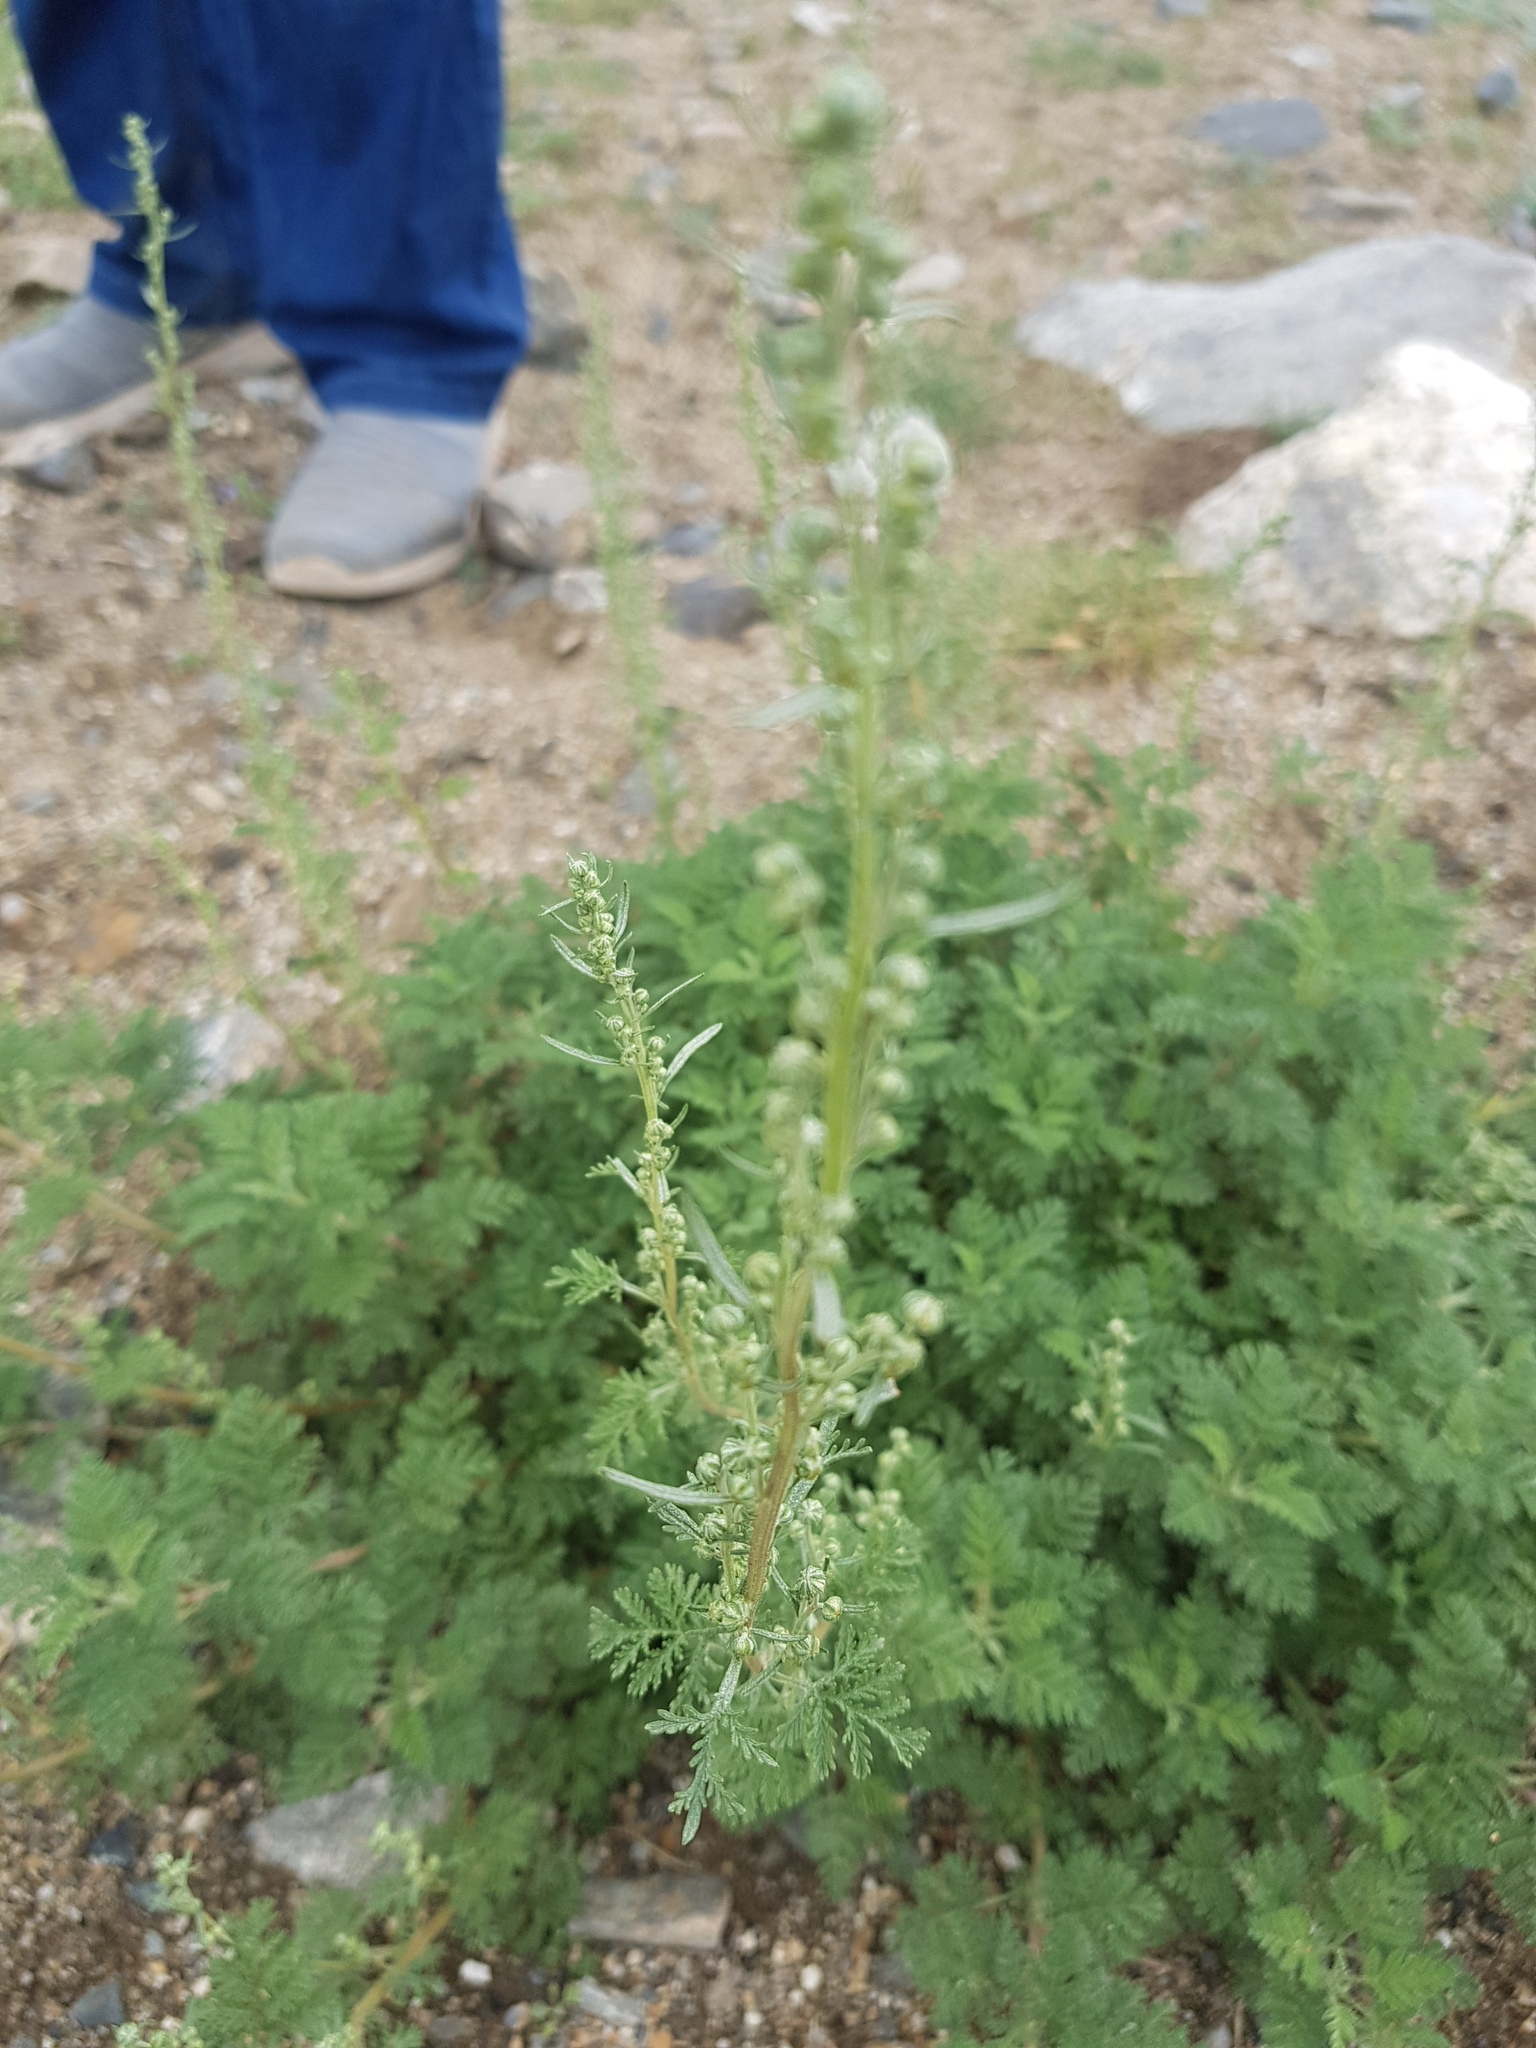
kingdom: Plantae
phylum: Tracheophyta
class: Magnoliopsida
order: Asterales
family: Asteraceae
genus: Artemisia
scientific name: Artemisia
